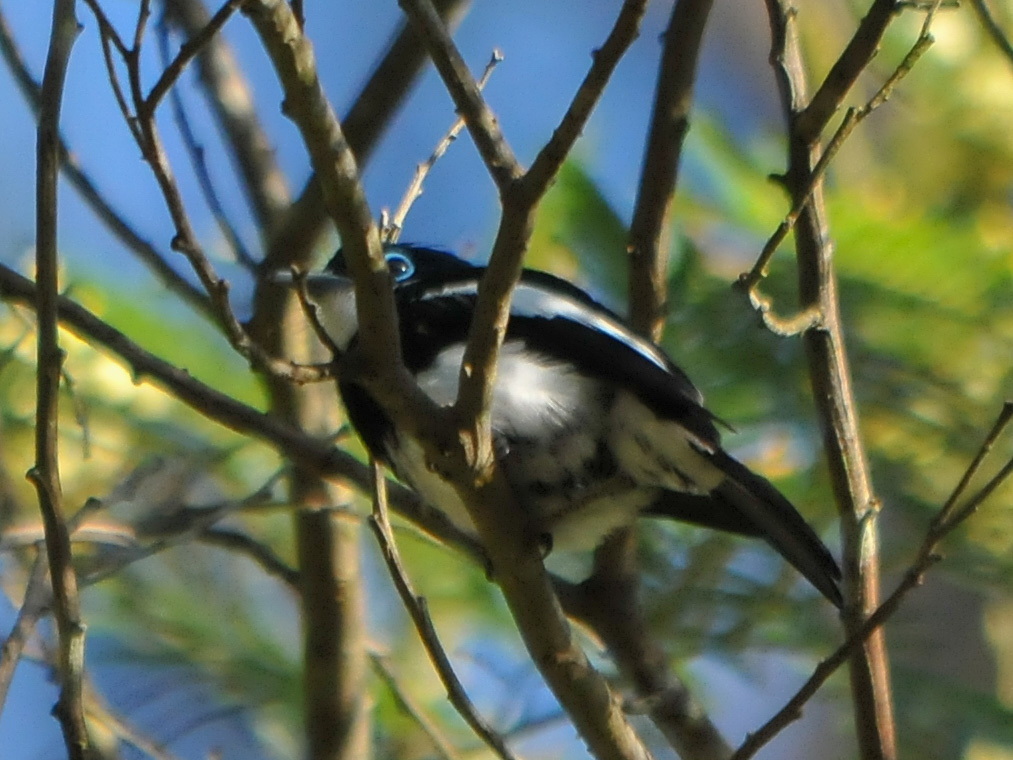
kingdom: Animalia
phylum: Chordata
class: Aves
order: Passeriformes
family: Vangidae
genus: Pseudobias
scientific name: Pseudobias wardi
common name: Ward's flycatcher
